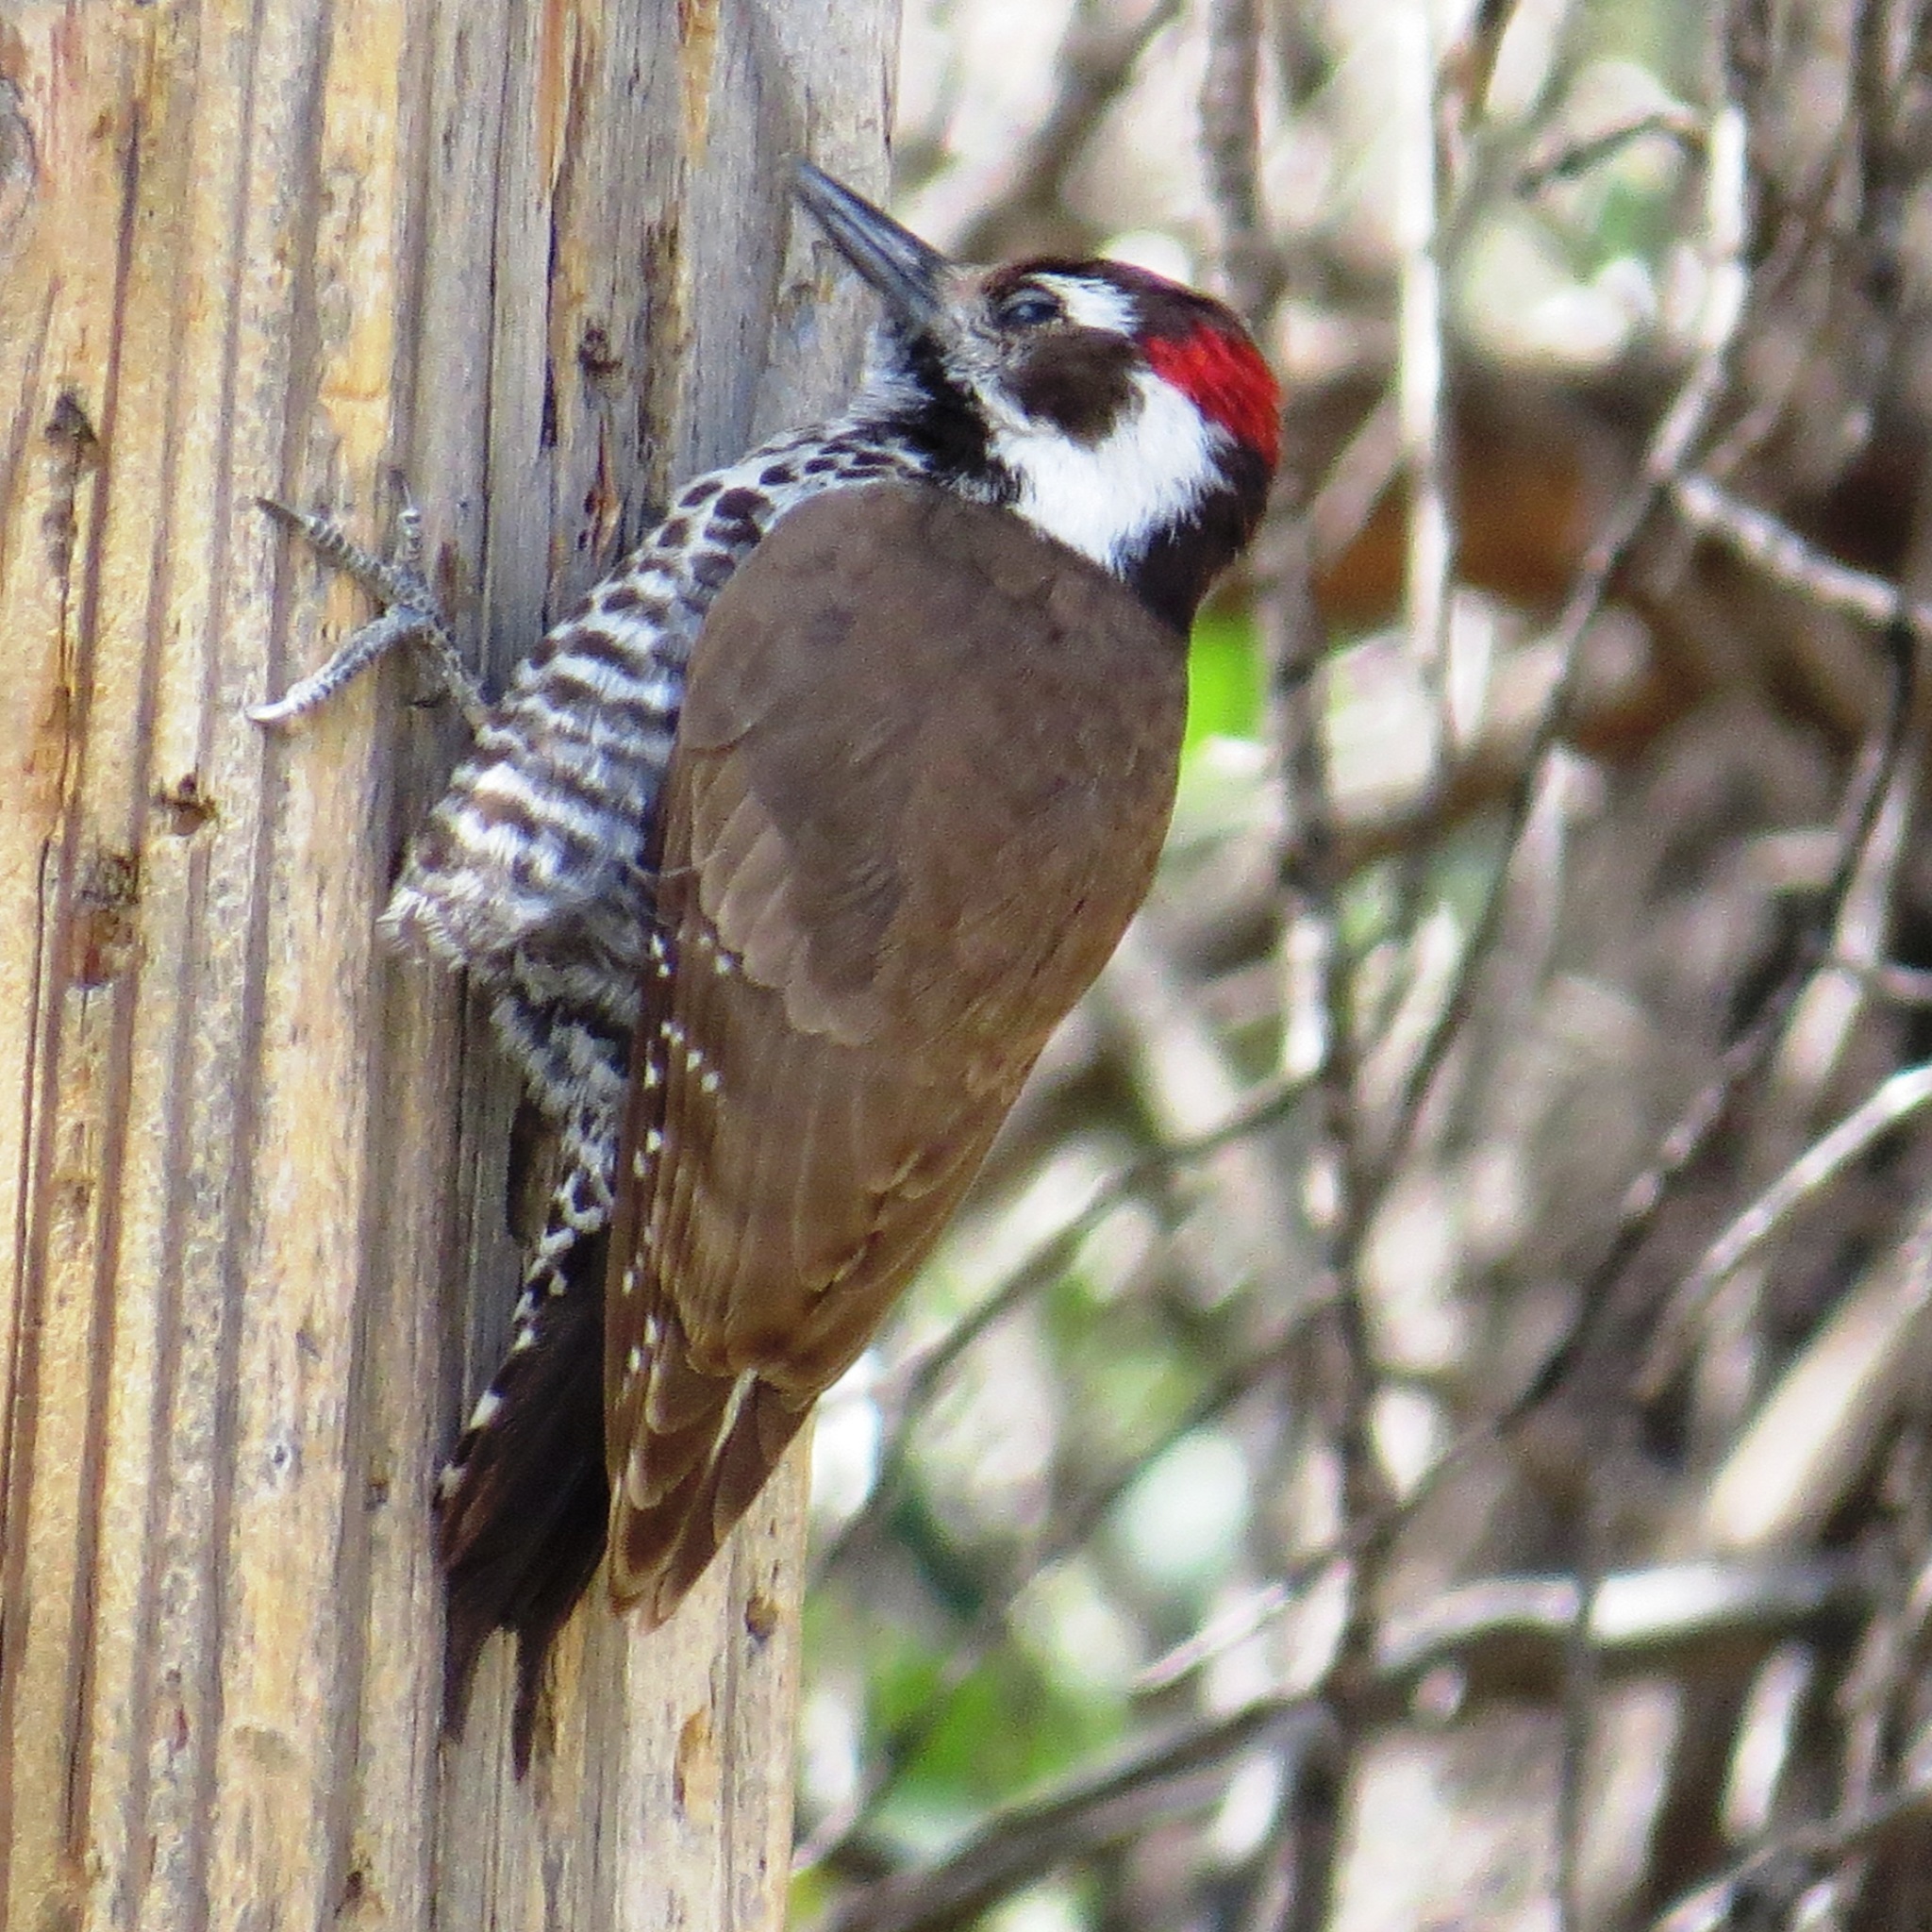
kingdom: Animalia
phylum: Chordata
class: Aves
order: Piciformes
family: Picidae
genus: Leuconotopicus
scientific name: Leuconotopicus arizonae
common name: Arizona woodpecker
